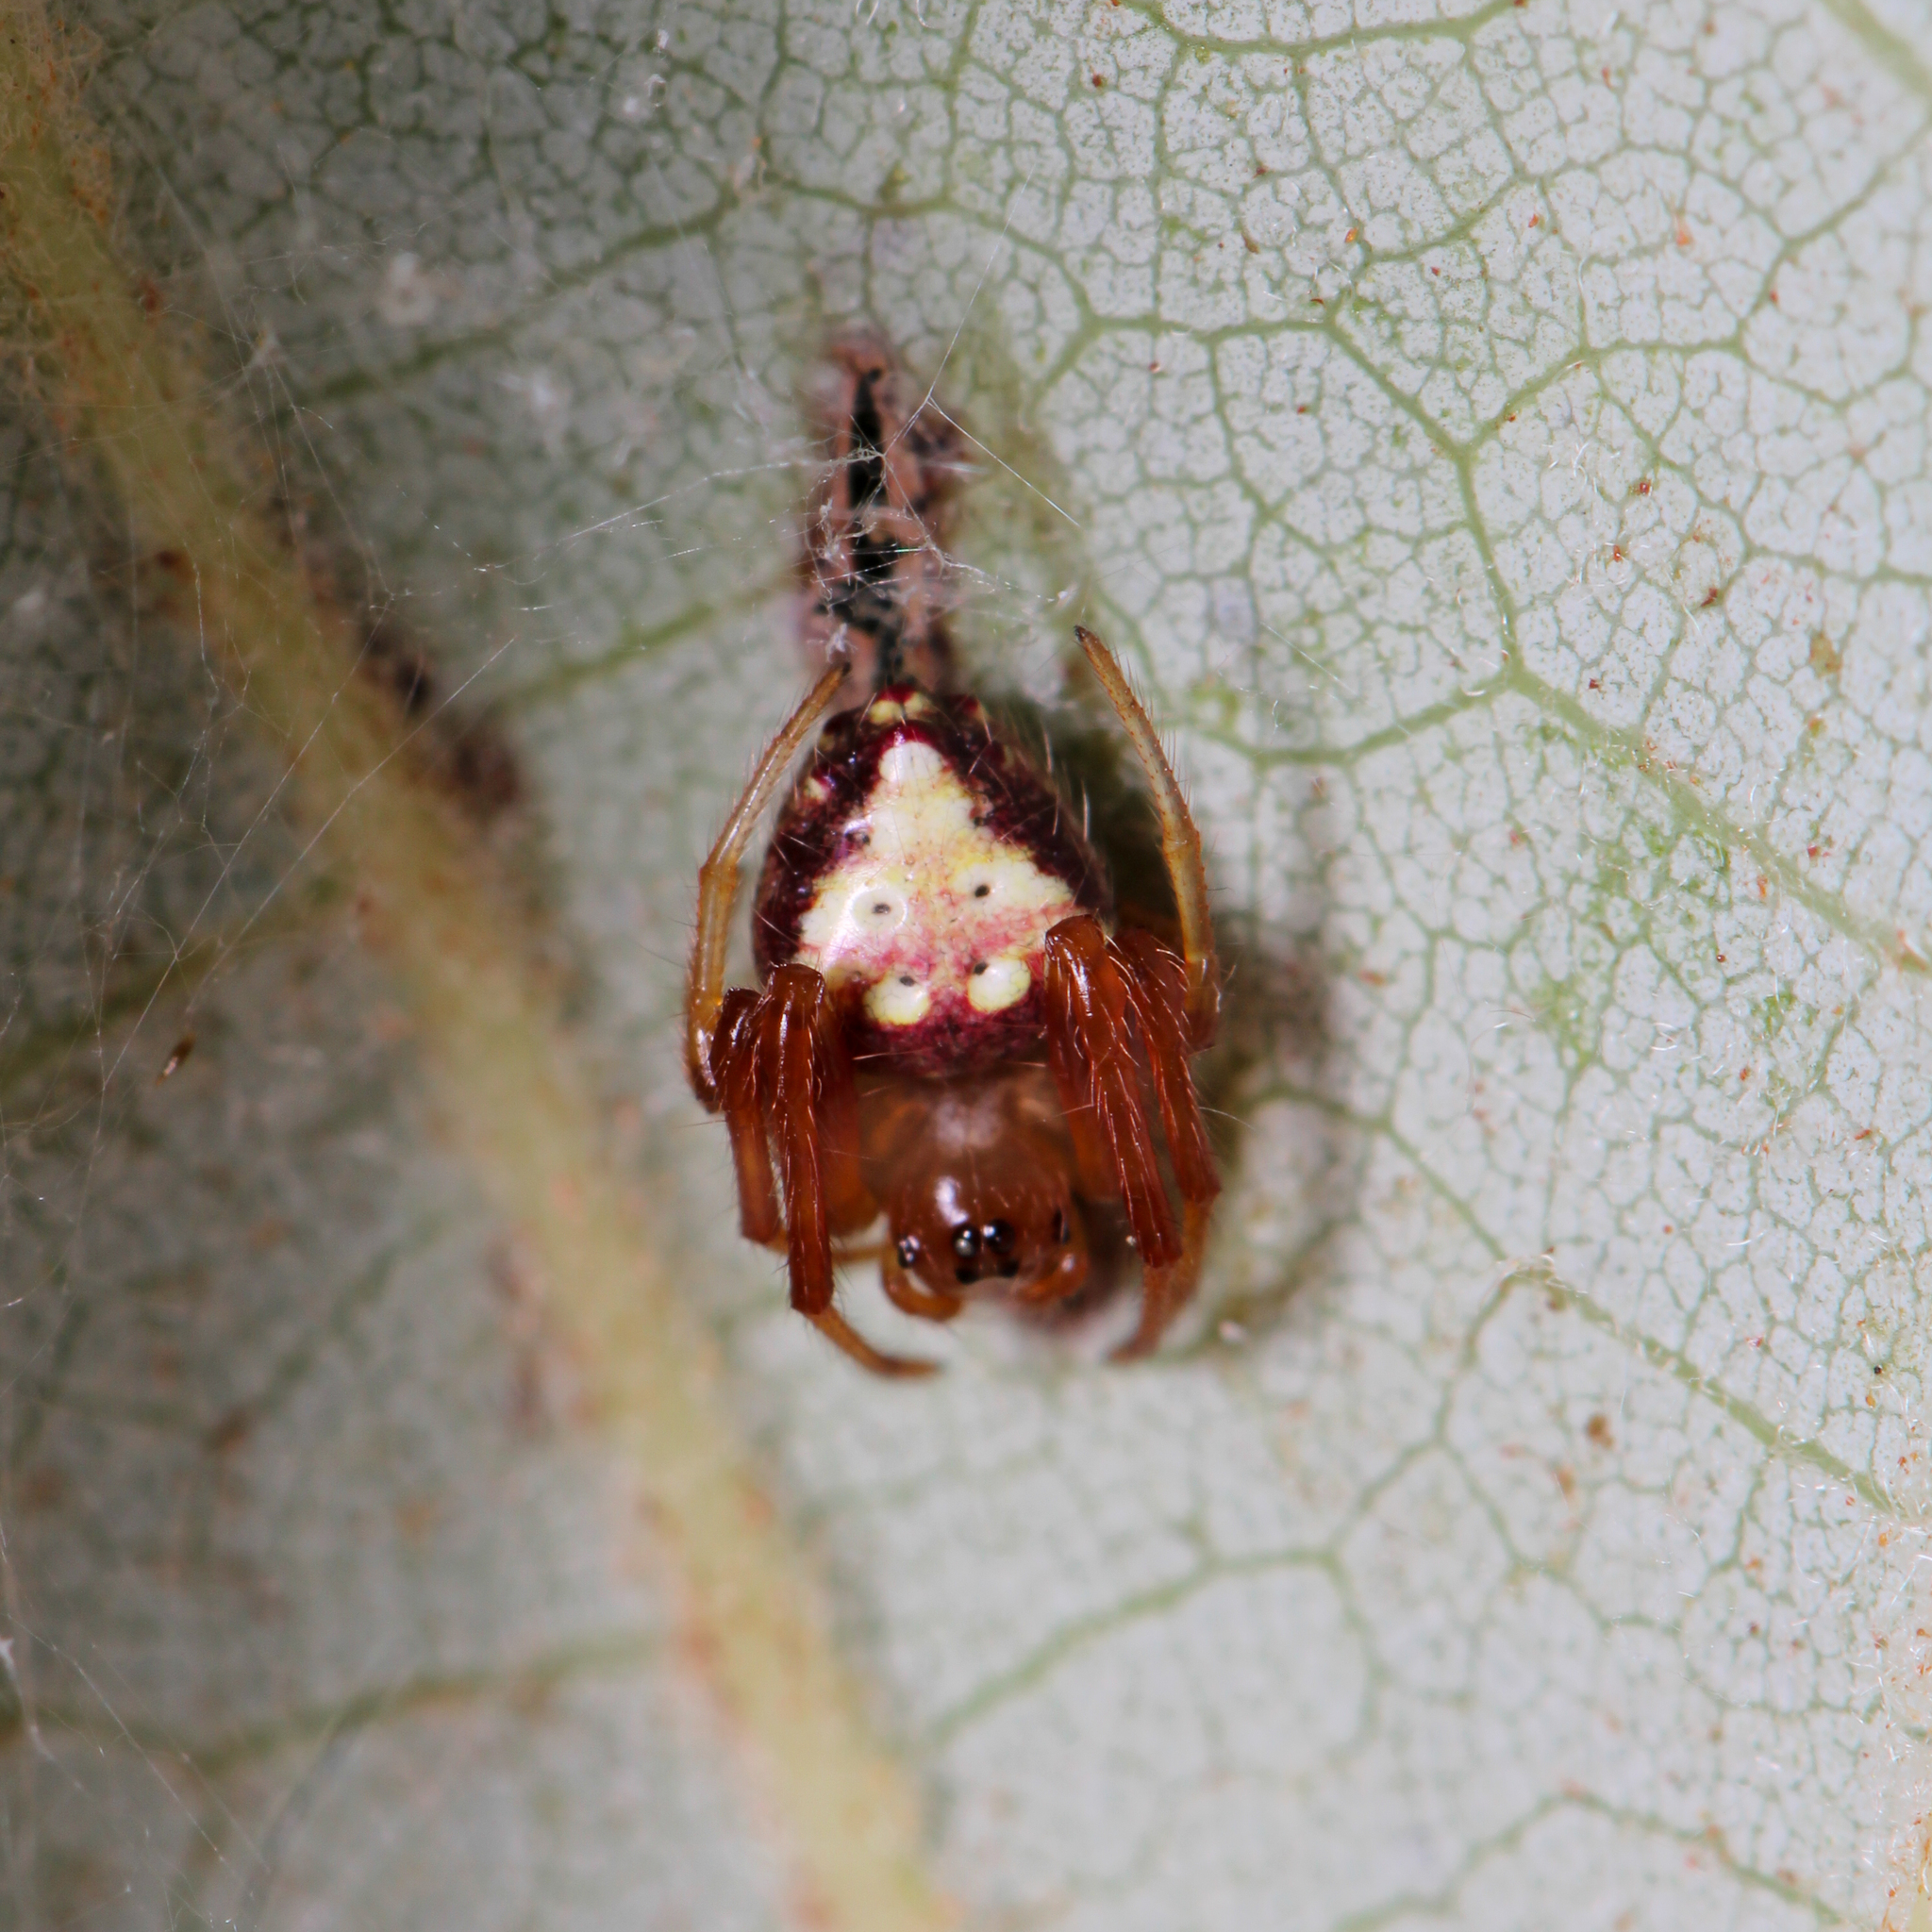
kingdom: Animalia
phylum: Arthropoda
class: Arachnida
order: Araneae
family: Araneidae
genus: Verrucosa
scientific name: Verrucosa arenata
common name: Orb weavers
